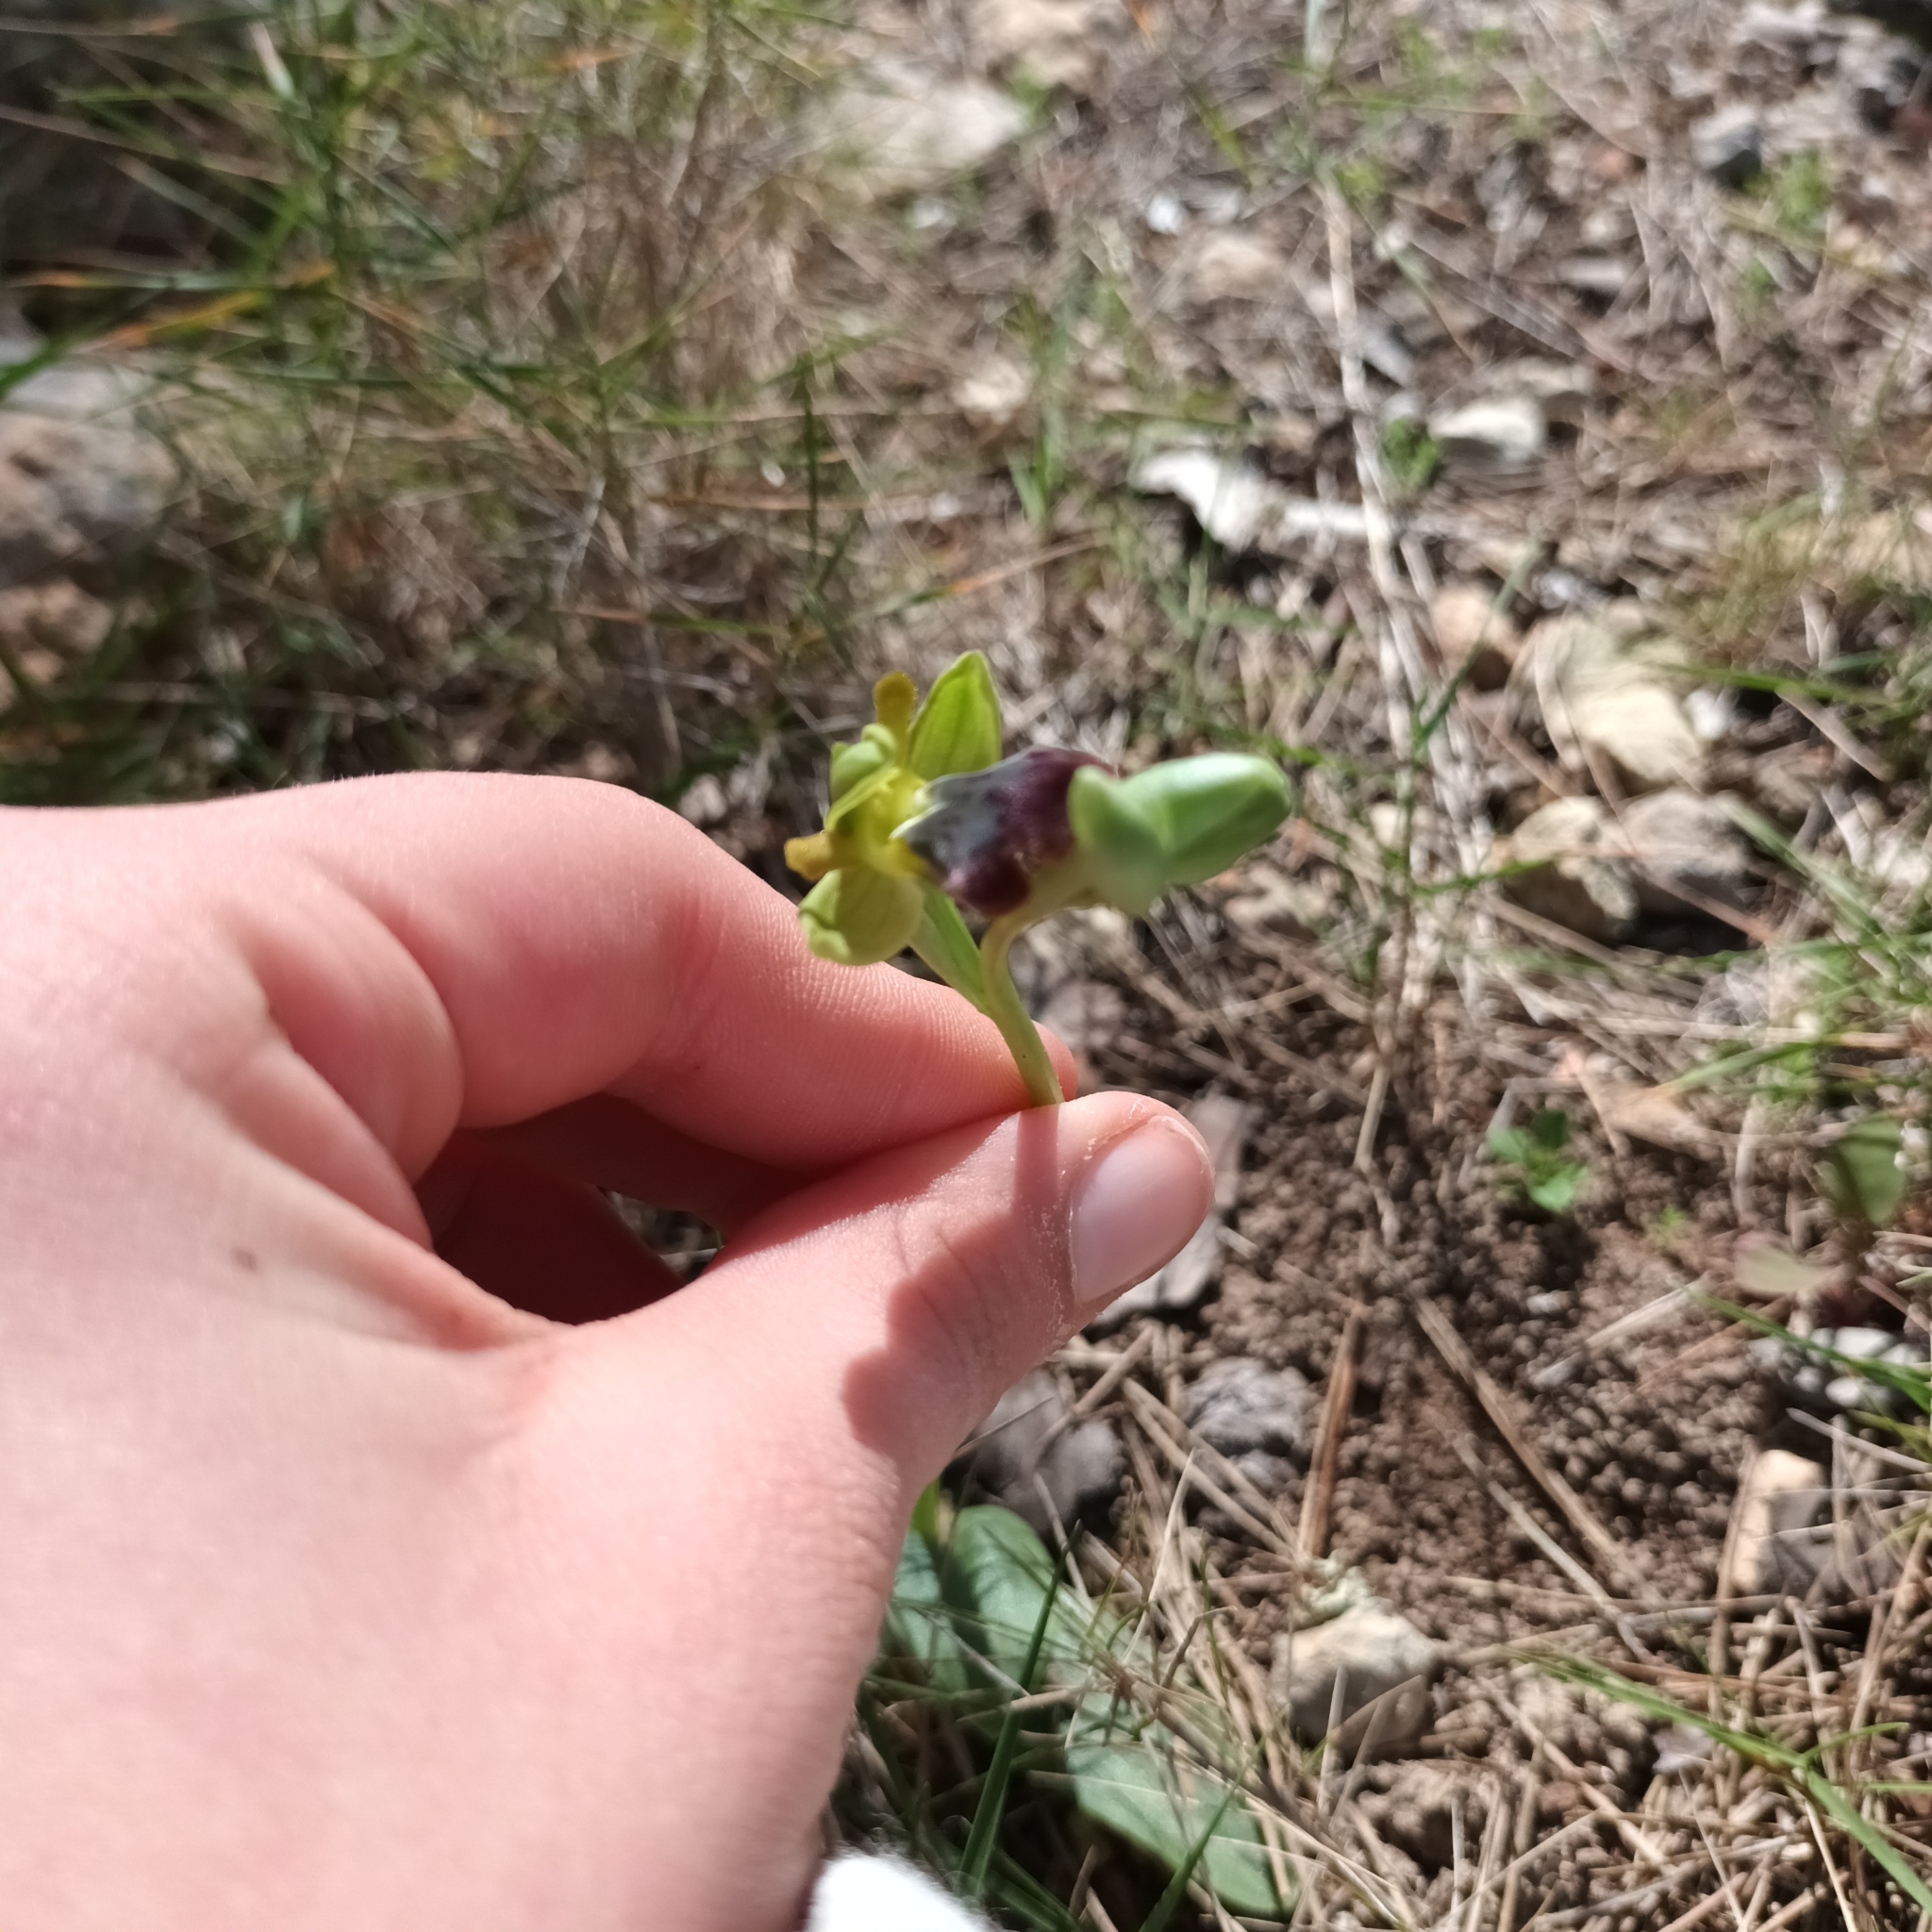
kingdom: Plantae
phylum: Tracheophyta
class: Liliopsida
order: Asparagales
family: Orchidaceae
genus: Ophrys
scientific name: Ophrys fusca
